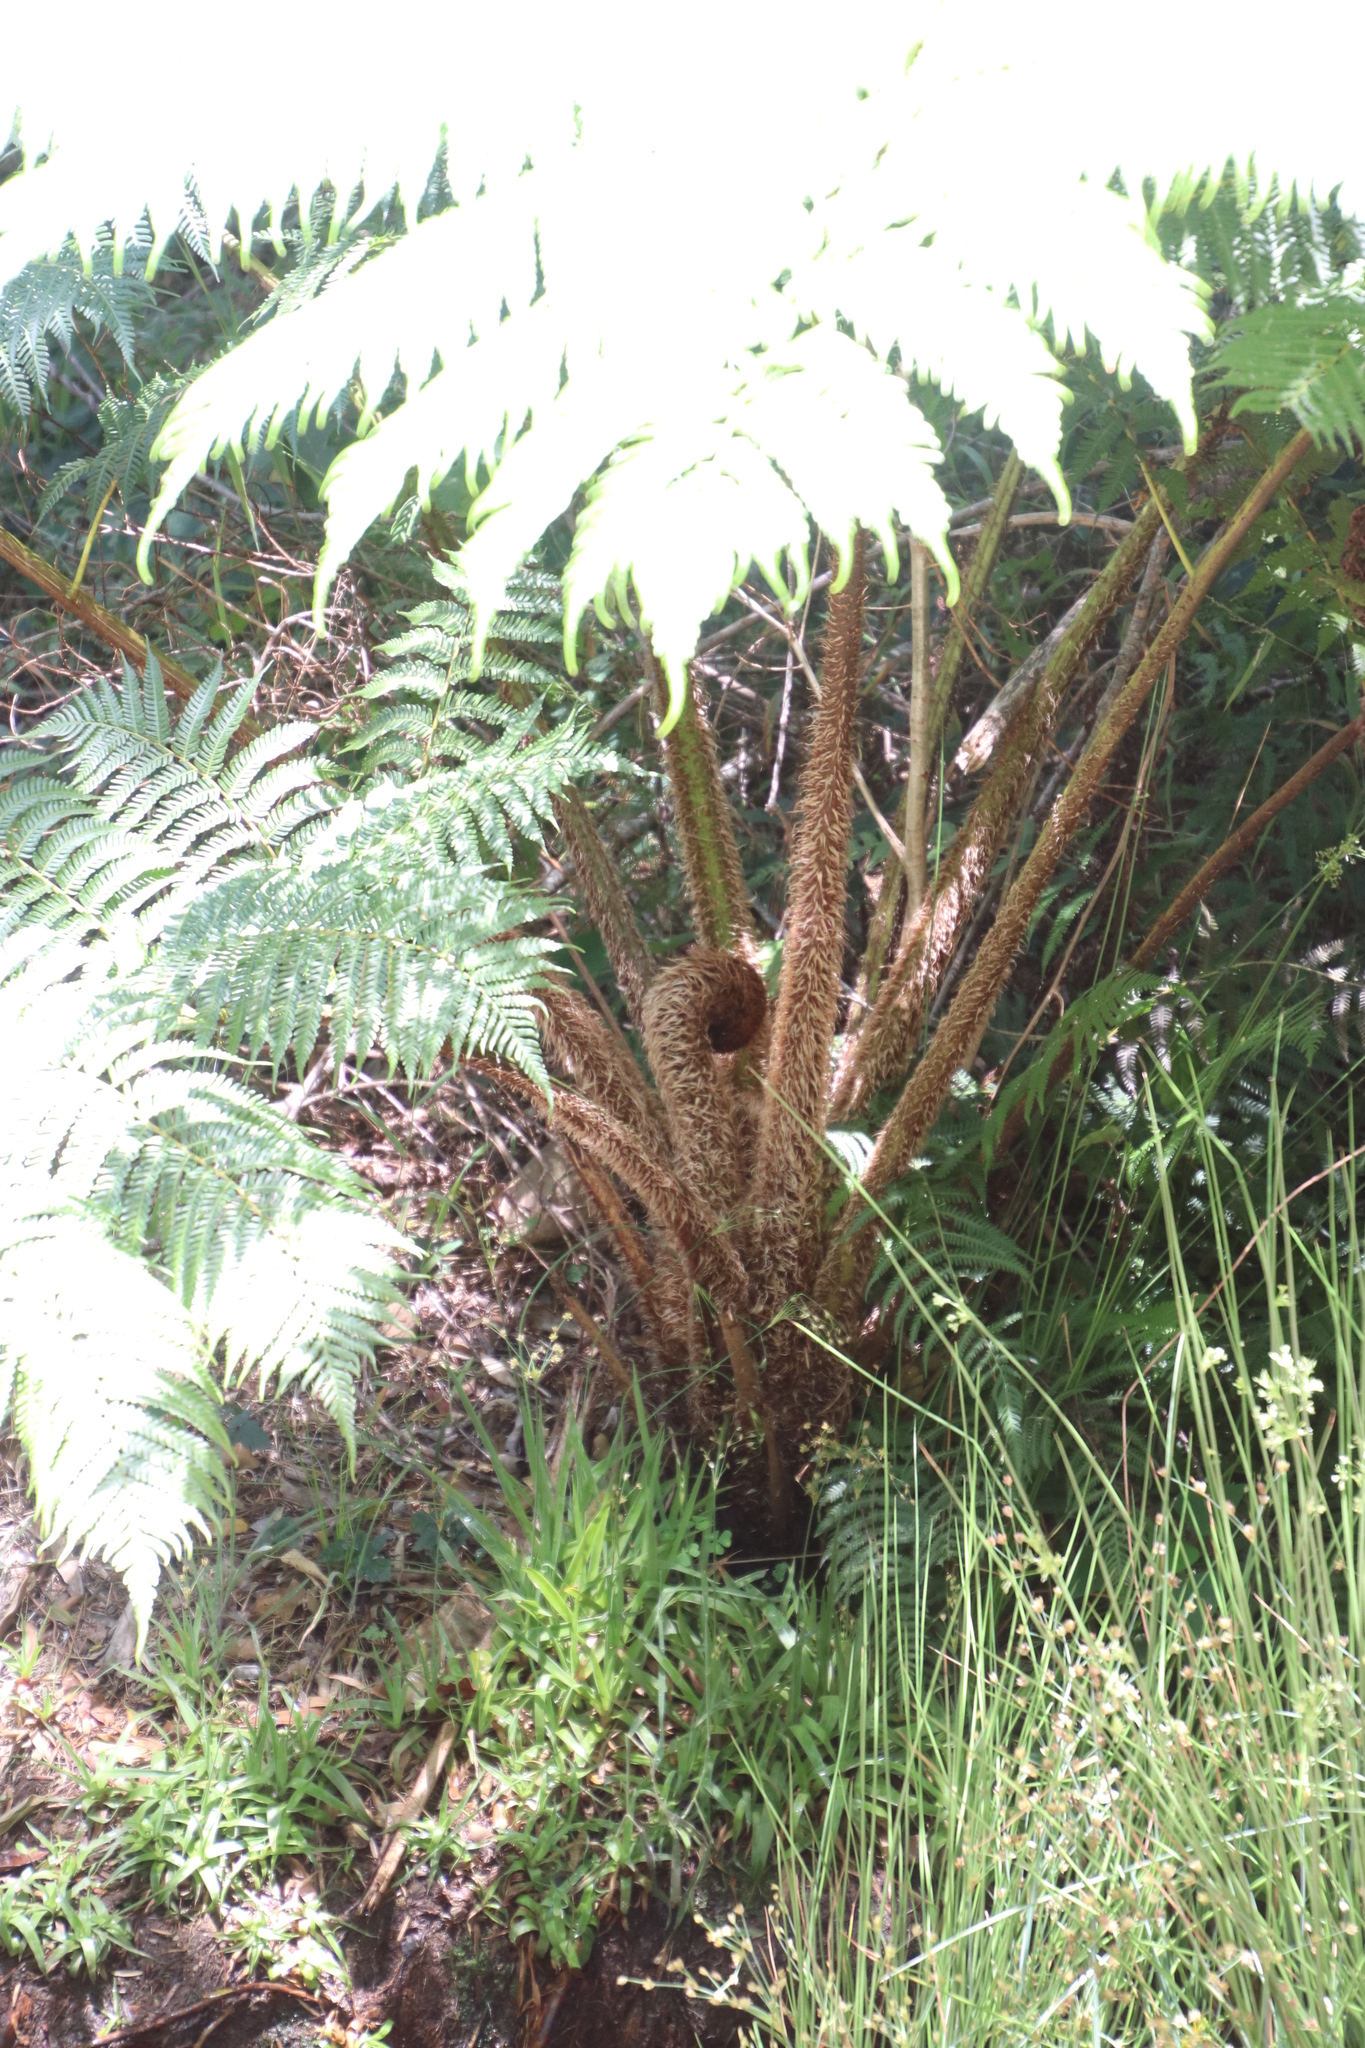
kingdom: Plantae
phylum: Tracheophyta
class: Polypodiopsida
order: Cyatheales
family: Cyatheaceae
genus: Sphaeropteris
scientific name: Sphaeropteris cooperi
